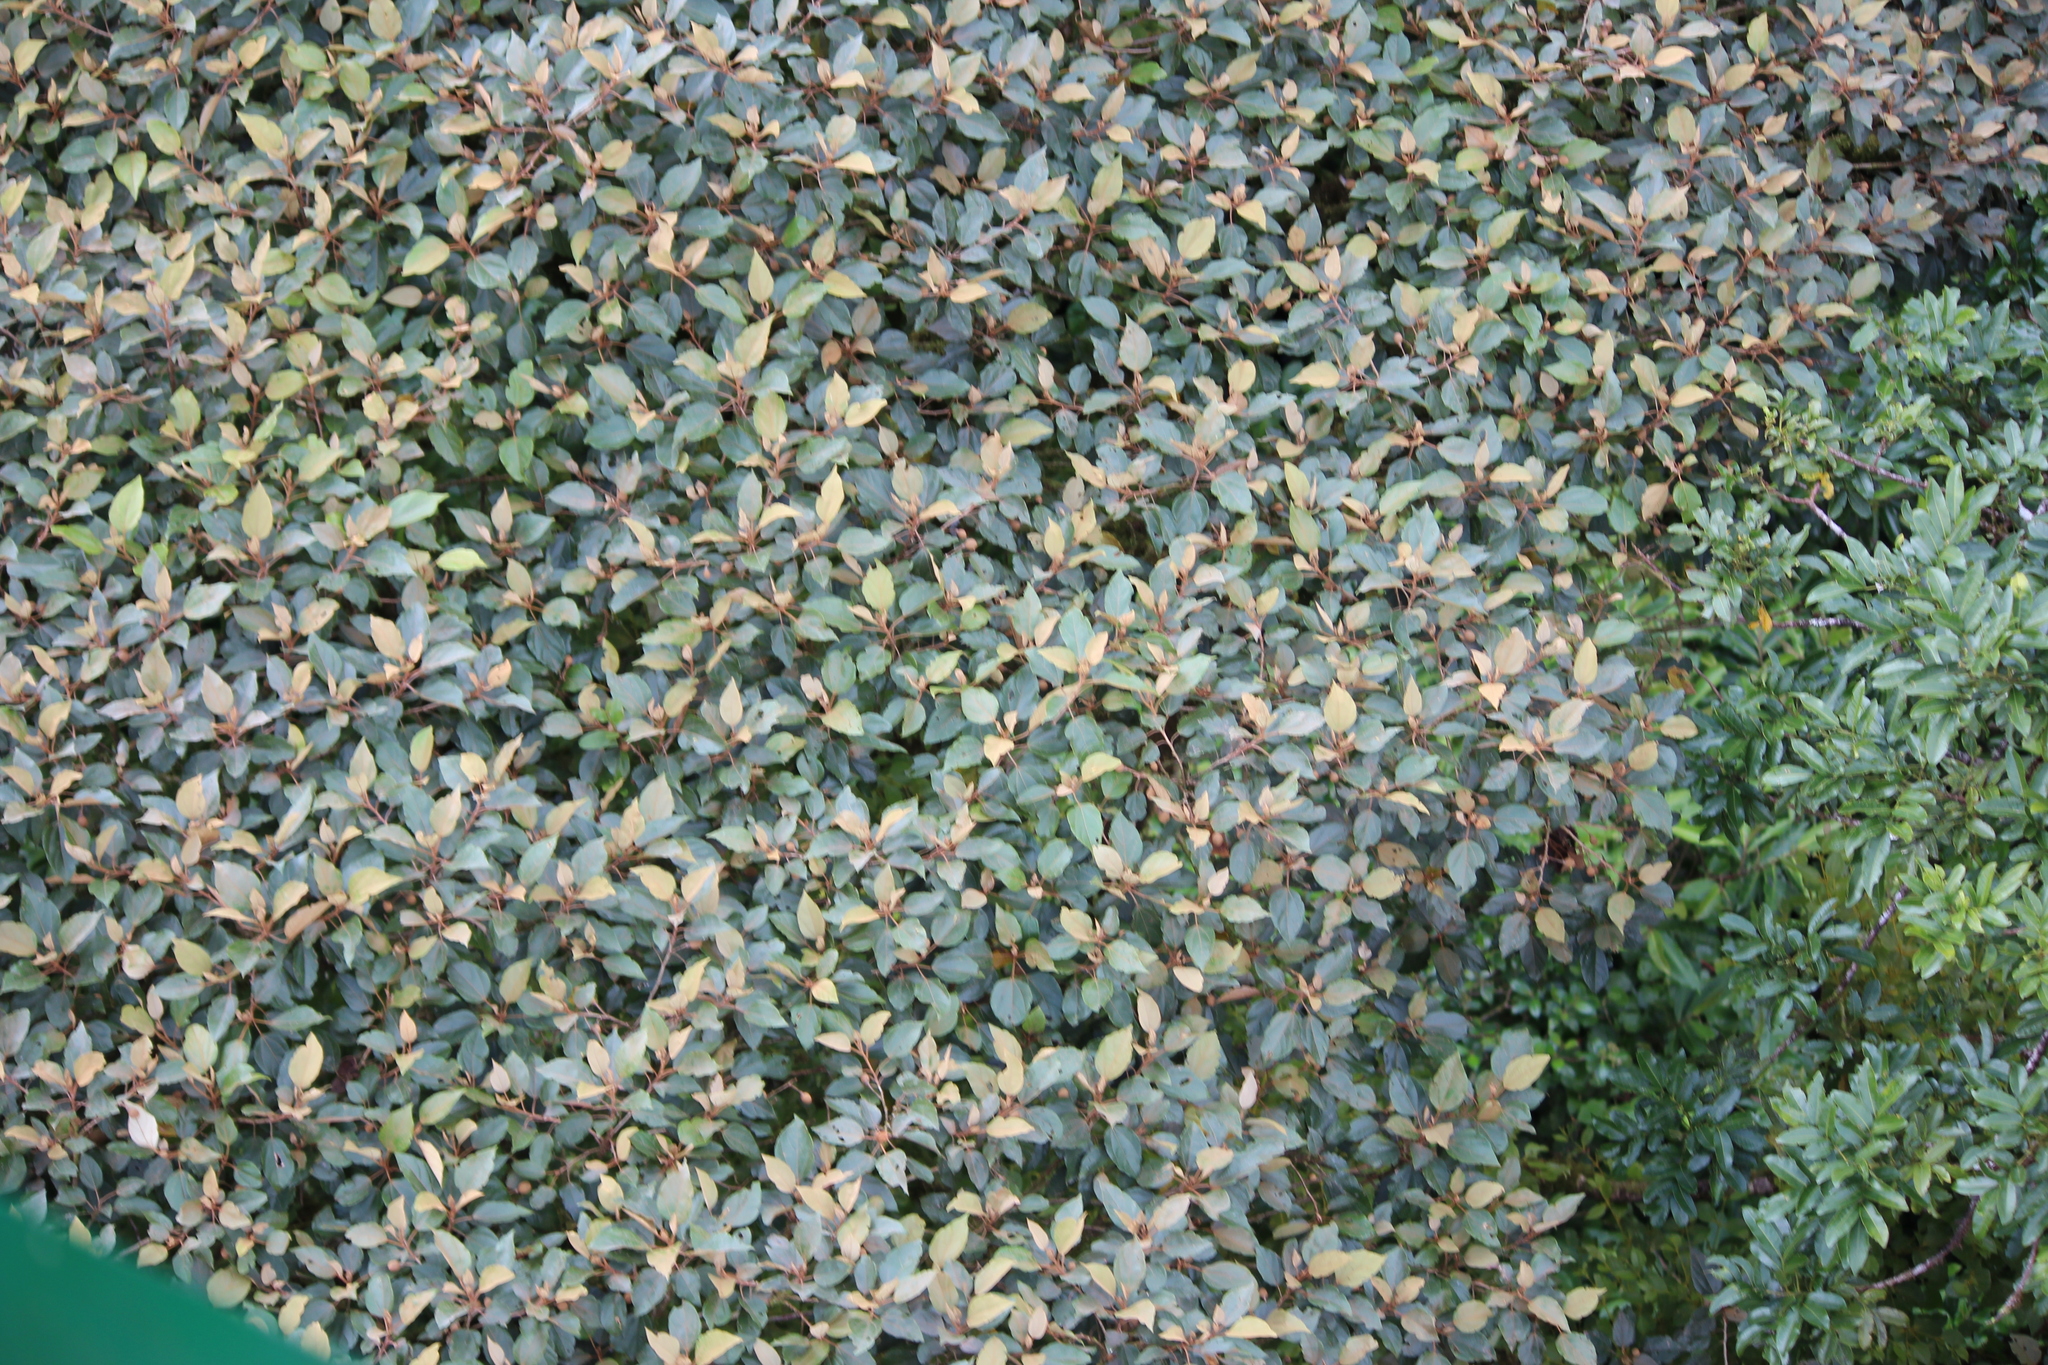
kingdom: Plantae
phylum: Tracheophyta
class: Magnoliopsida
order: Malvales
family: Malvaceae
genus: Hampea
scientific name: Hampea appendiculata
